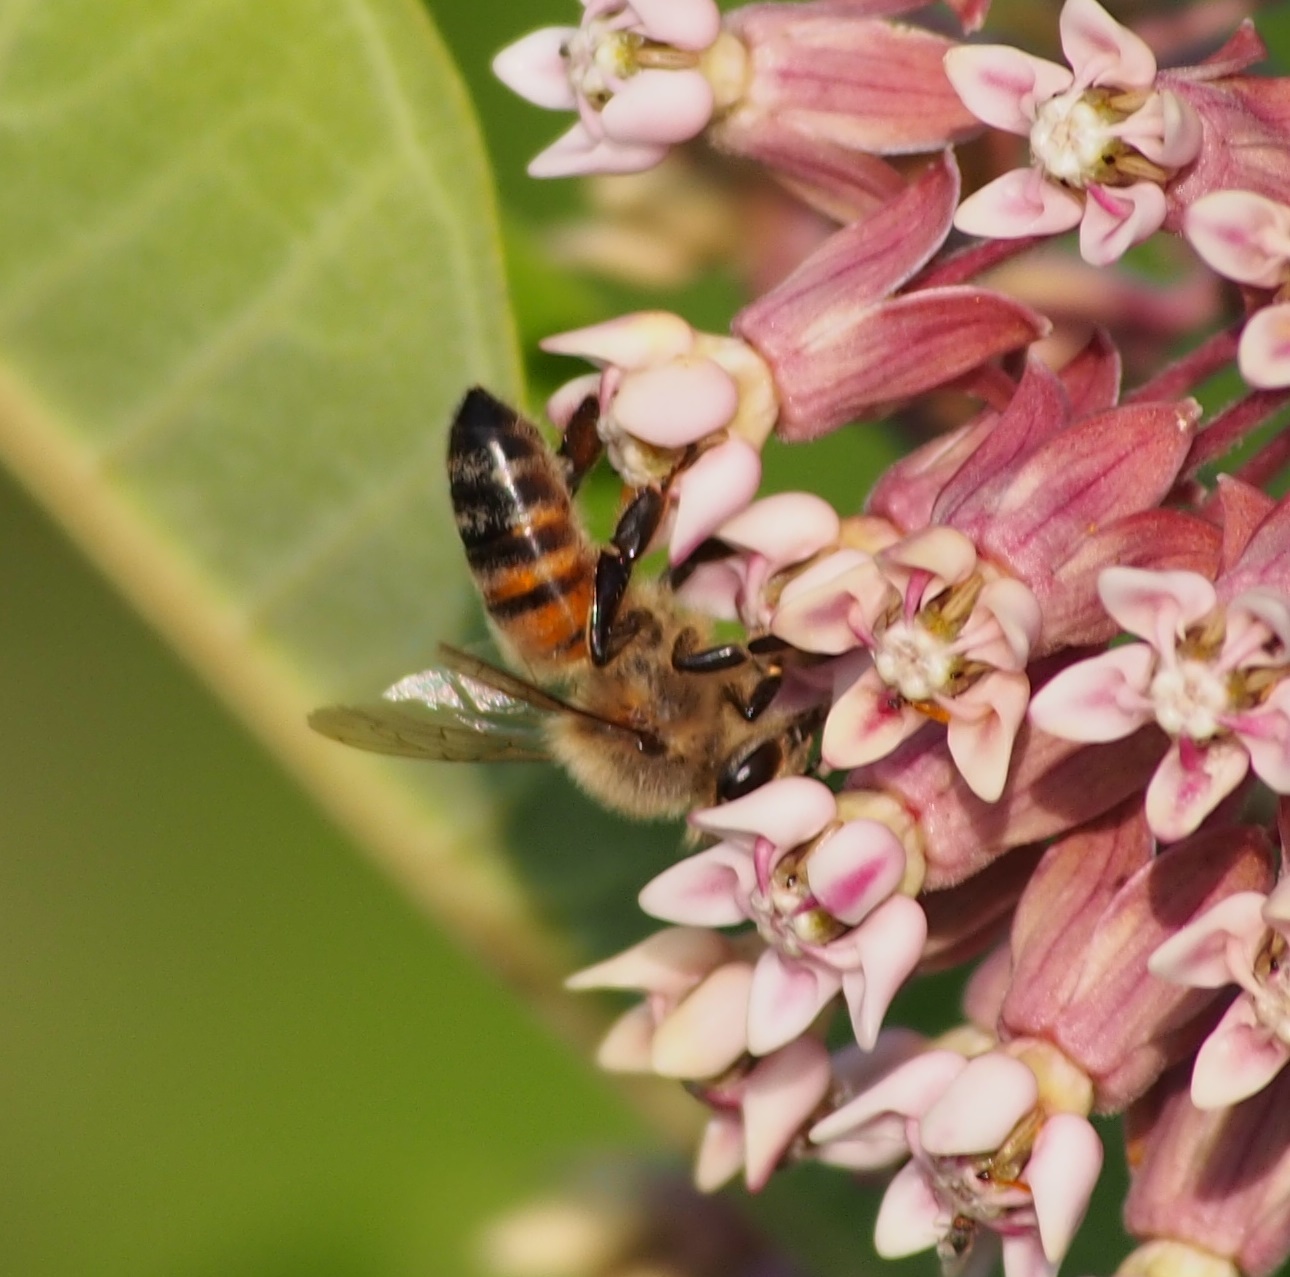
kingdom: Animalia
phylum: Arthropoda
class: Insecta
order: Hymenoptera
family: Apidae
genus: Apis
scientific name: Apis mellifera
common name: Honey bee
